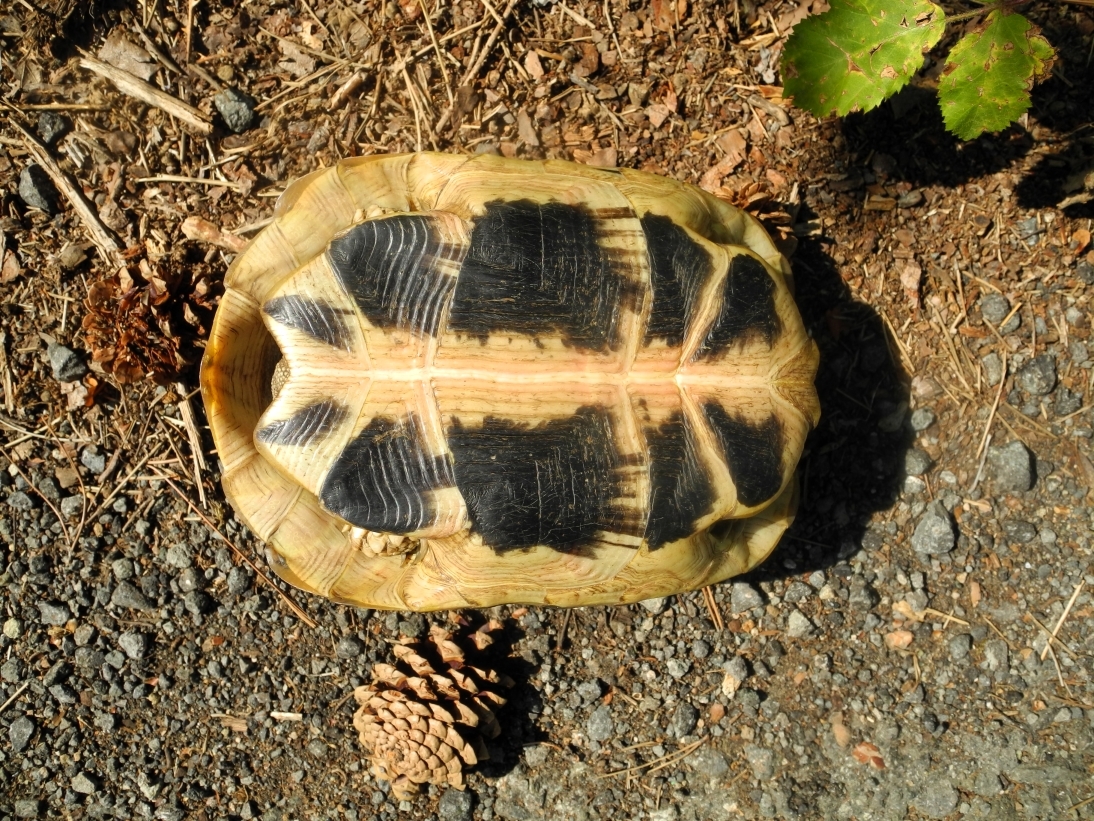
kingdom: Animalia
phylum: Chordata
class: Testudines
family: Testudinidae
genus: Testudo
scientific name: Testudo hermanni
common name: Hermann's tortoise
